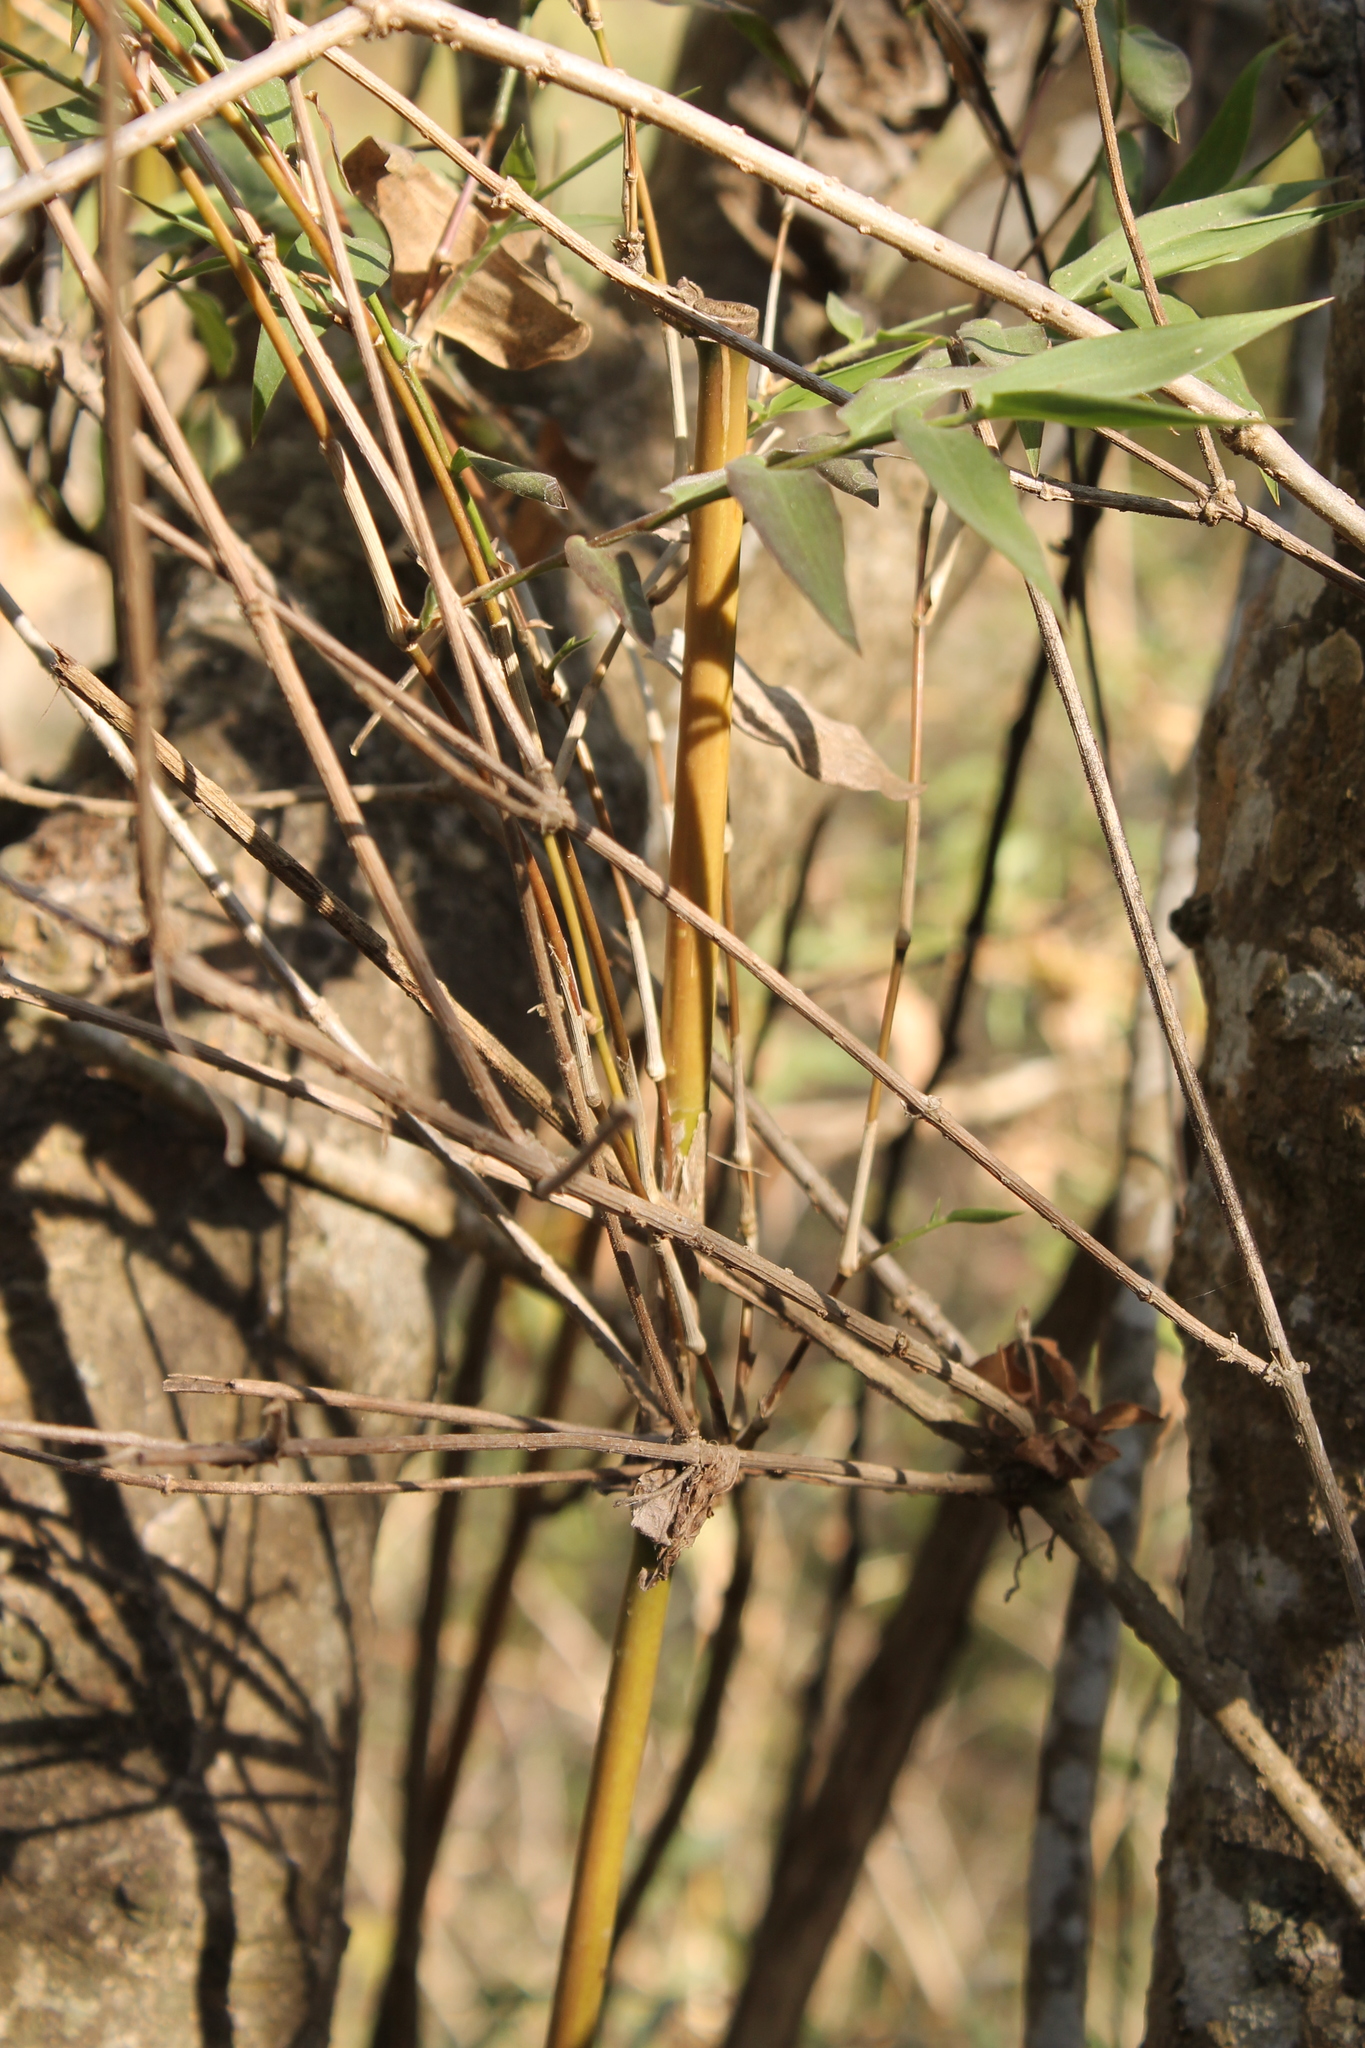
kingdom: Plantae
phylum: Tracheophyta
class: Liliopsida
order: Poales
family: Poaceae
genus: Lasiacis
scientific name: Lasiacis ruscifolia
